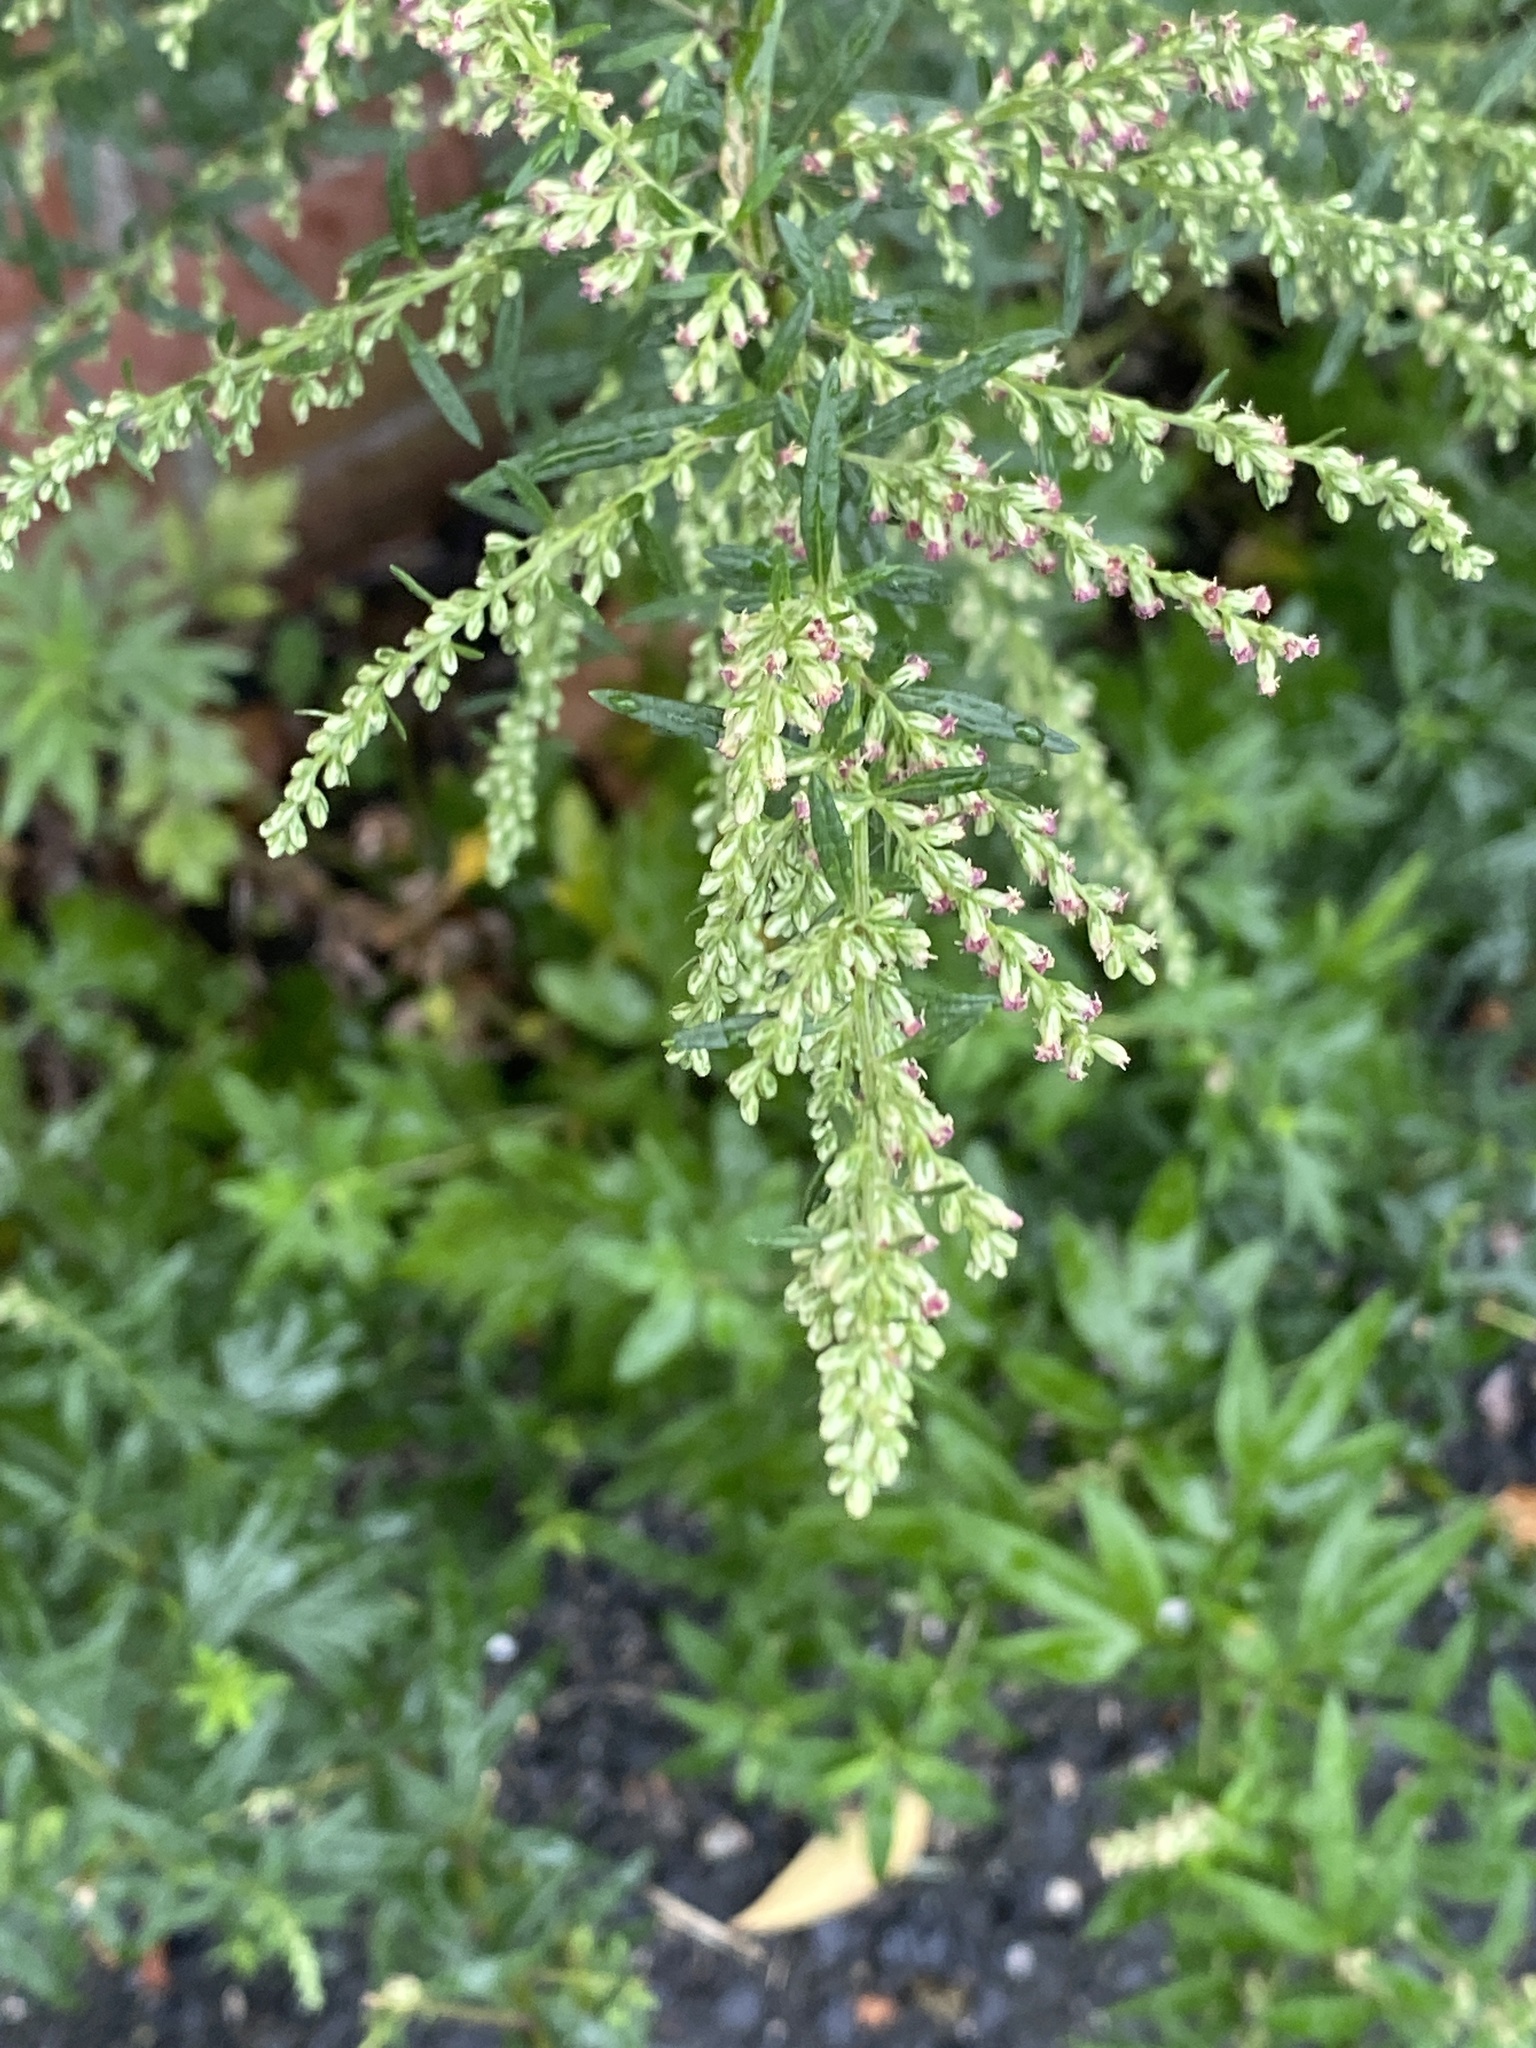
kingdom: Plantae
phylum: Tracheophyta
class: Magnoliopsida
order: Asterales
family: Asteraceae
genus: Artemisia
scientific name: Artemisia vulgaris
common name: Mugwort
